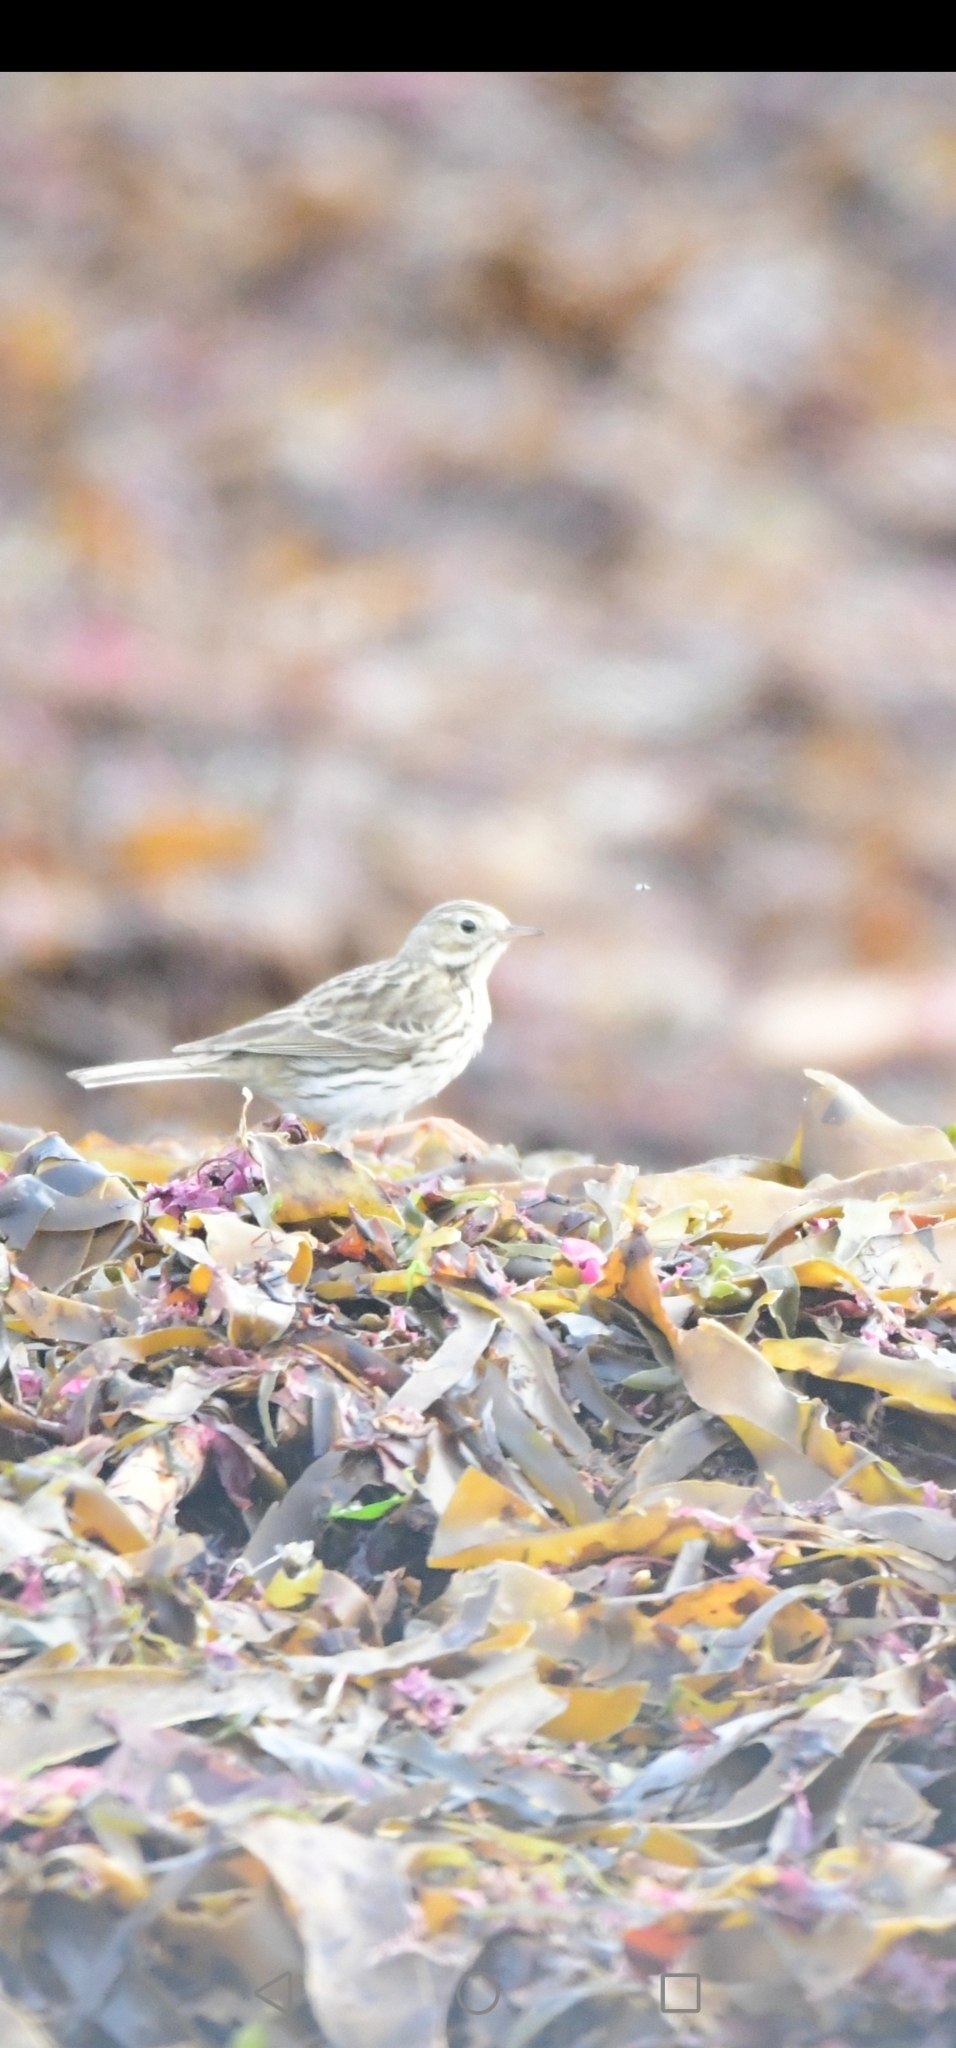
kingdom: Animalia
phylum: Chordata
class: Aves
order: Passeriformes
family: Motacillidae
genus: Anthus
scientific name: Anthus pratensis
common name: Meadow pipit
